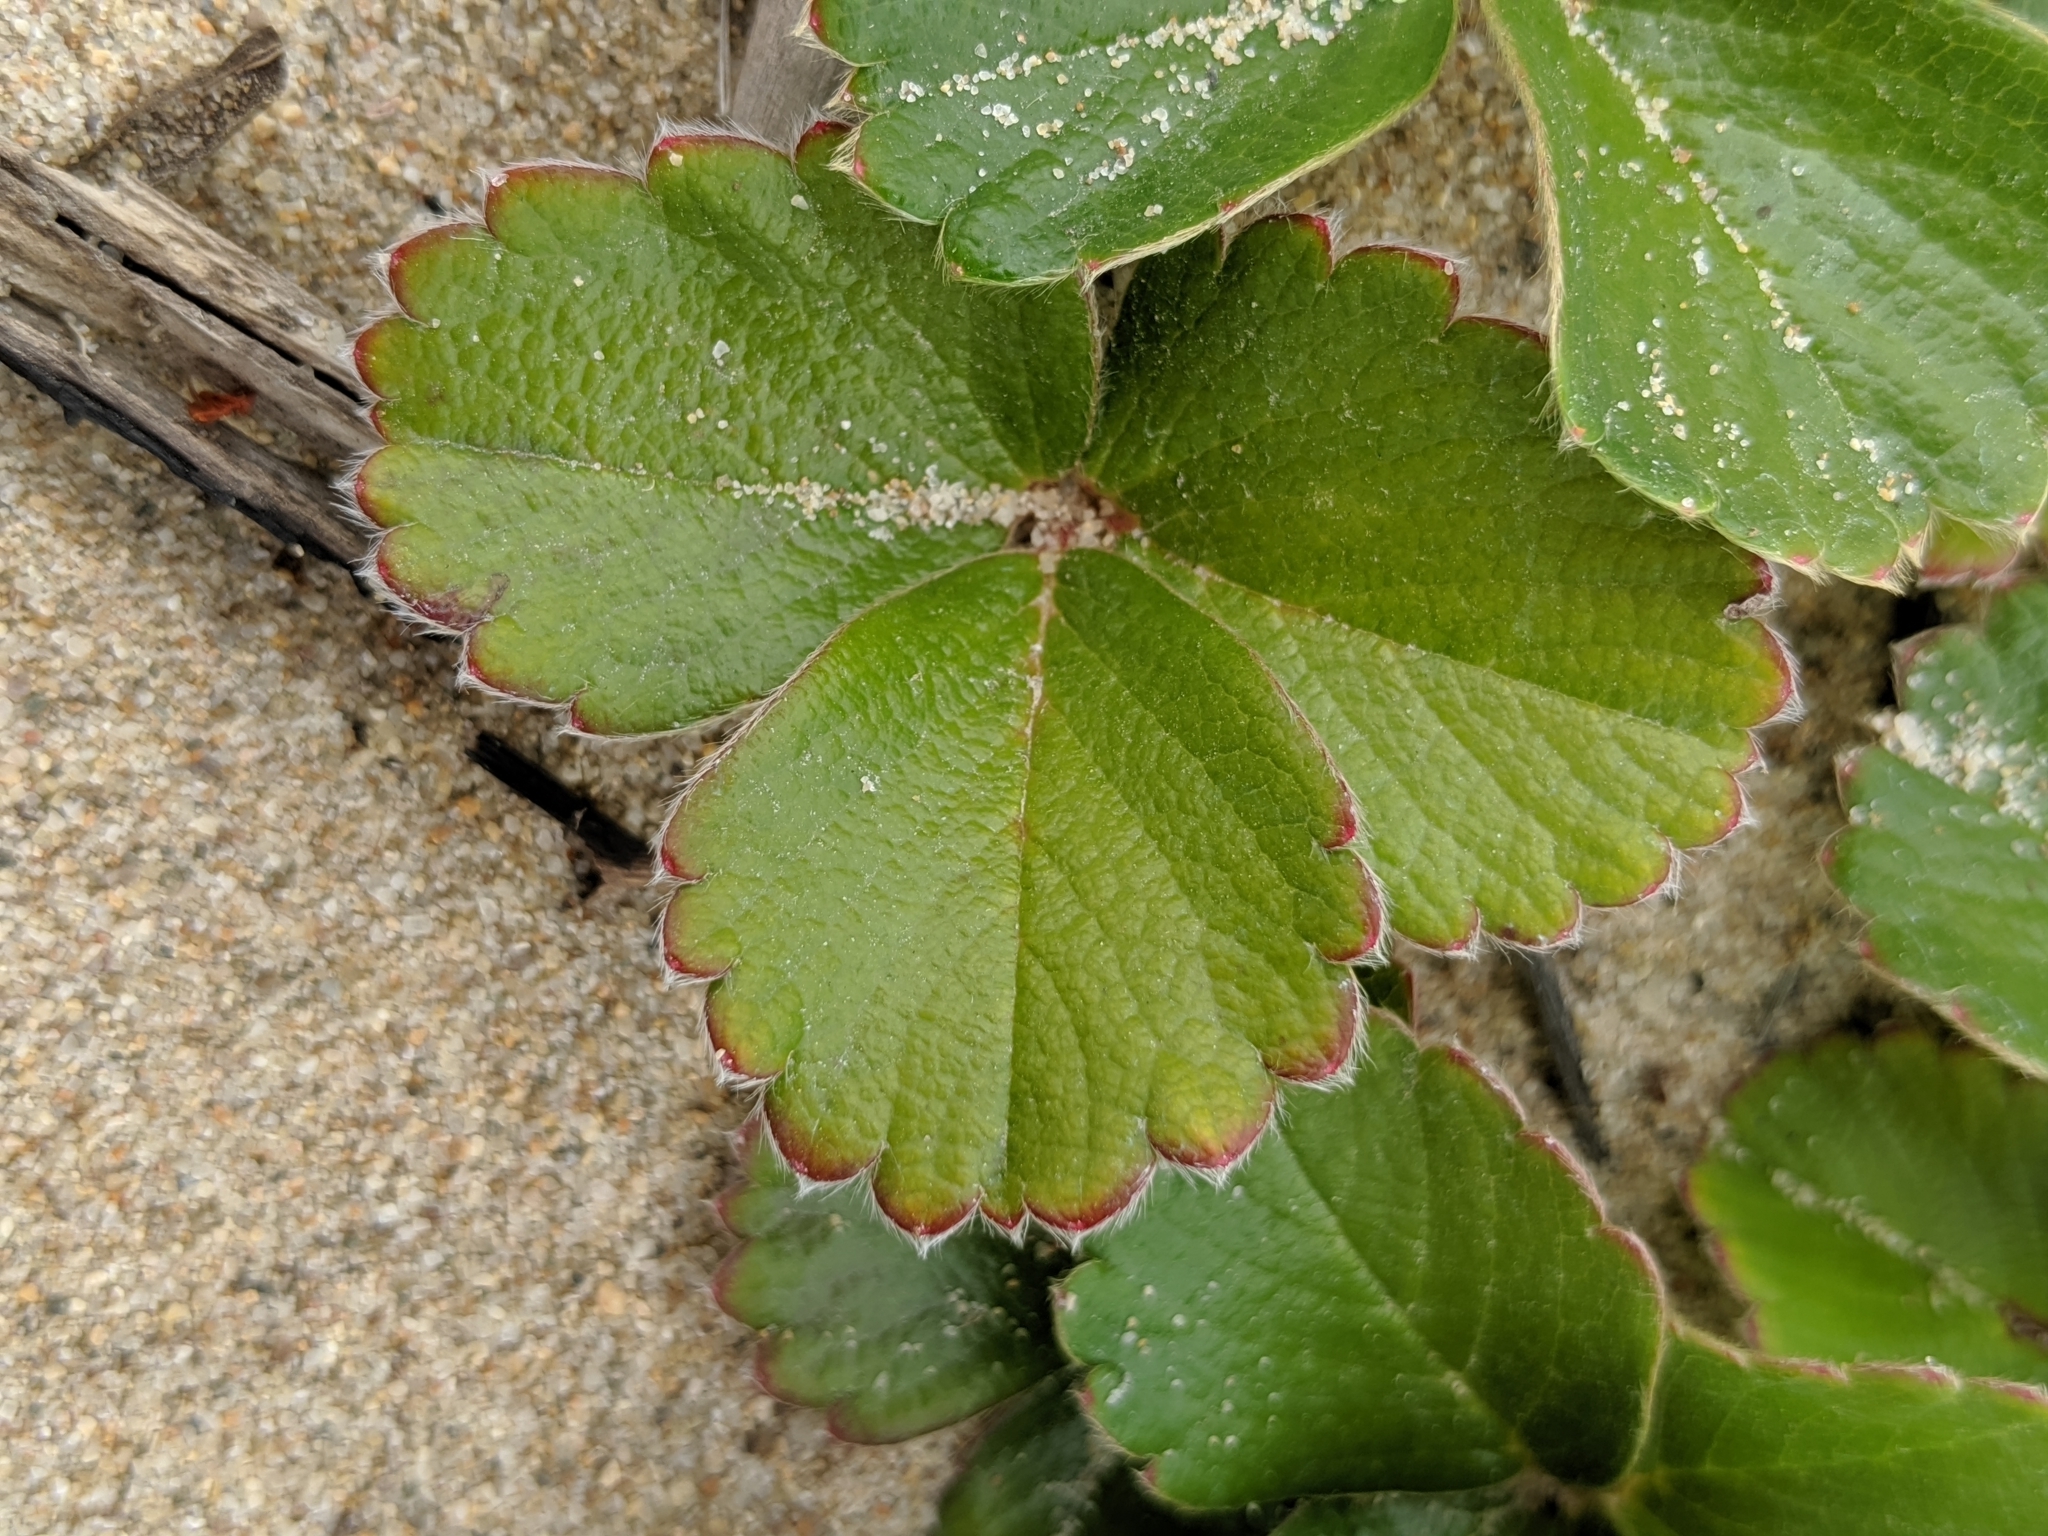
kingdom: Plantae
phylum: Tracheophyta
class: Magnoliopsida
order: Rosales
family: Rosaceae
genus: Fragaria
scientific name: Fragaria chiloensis
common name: Beach strawberry
